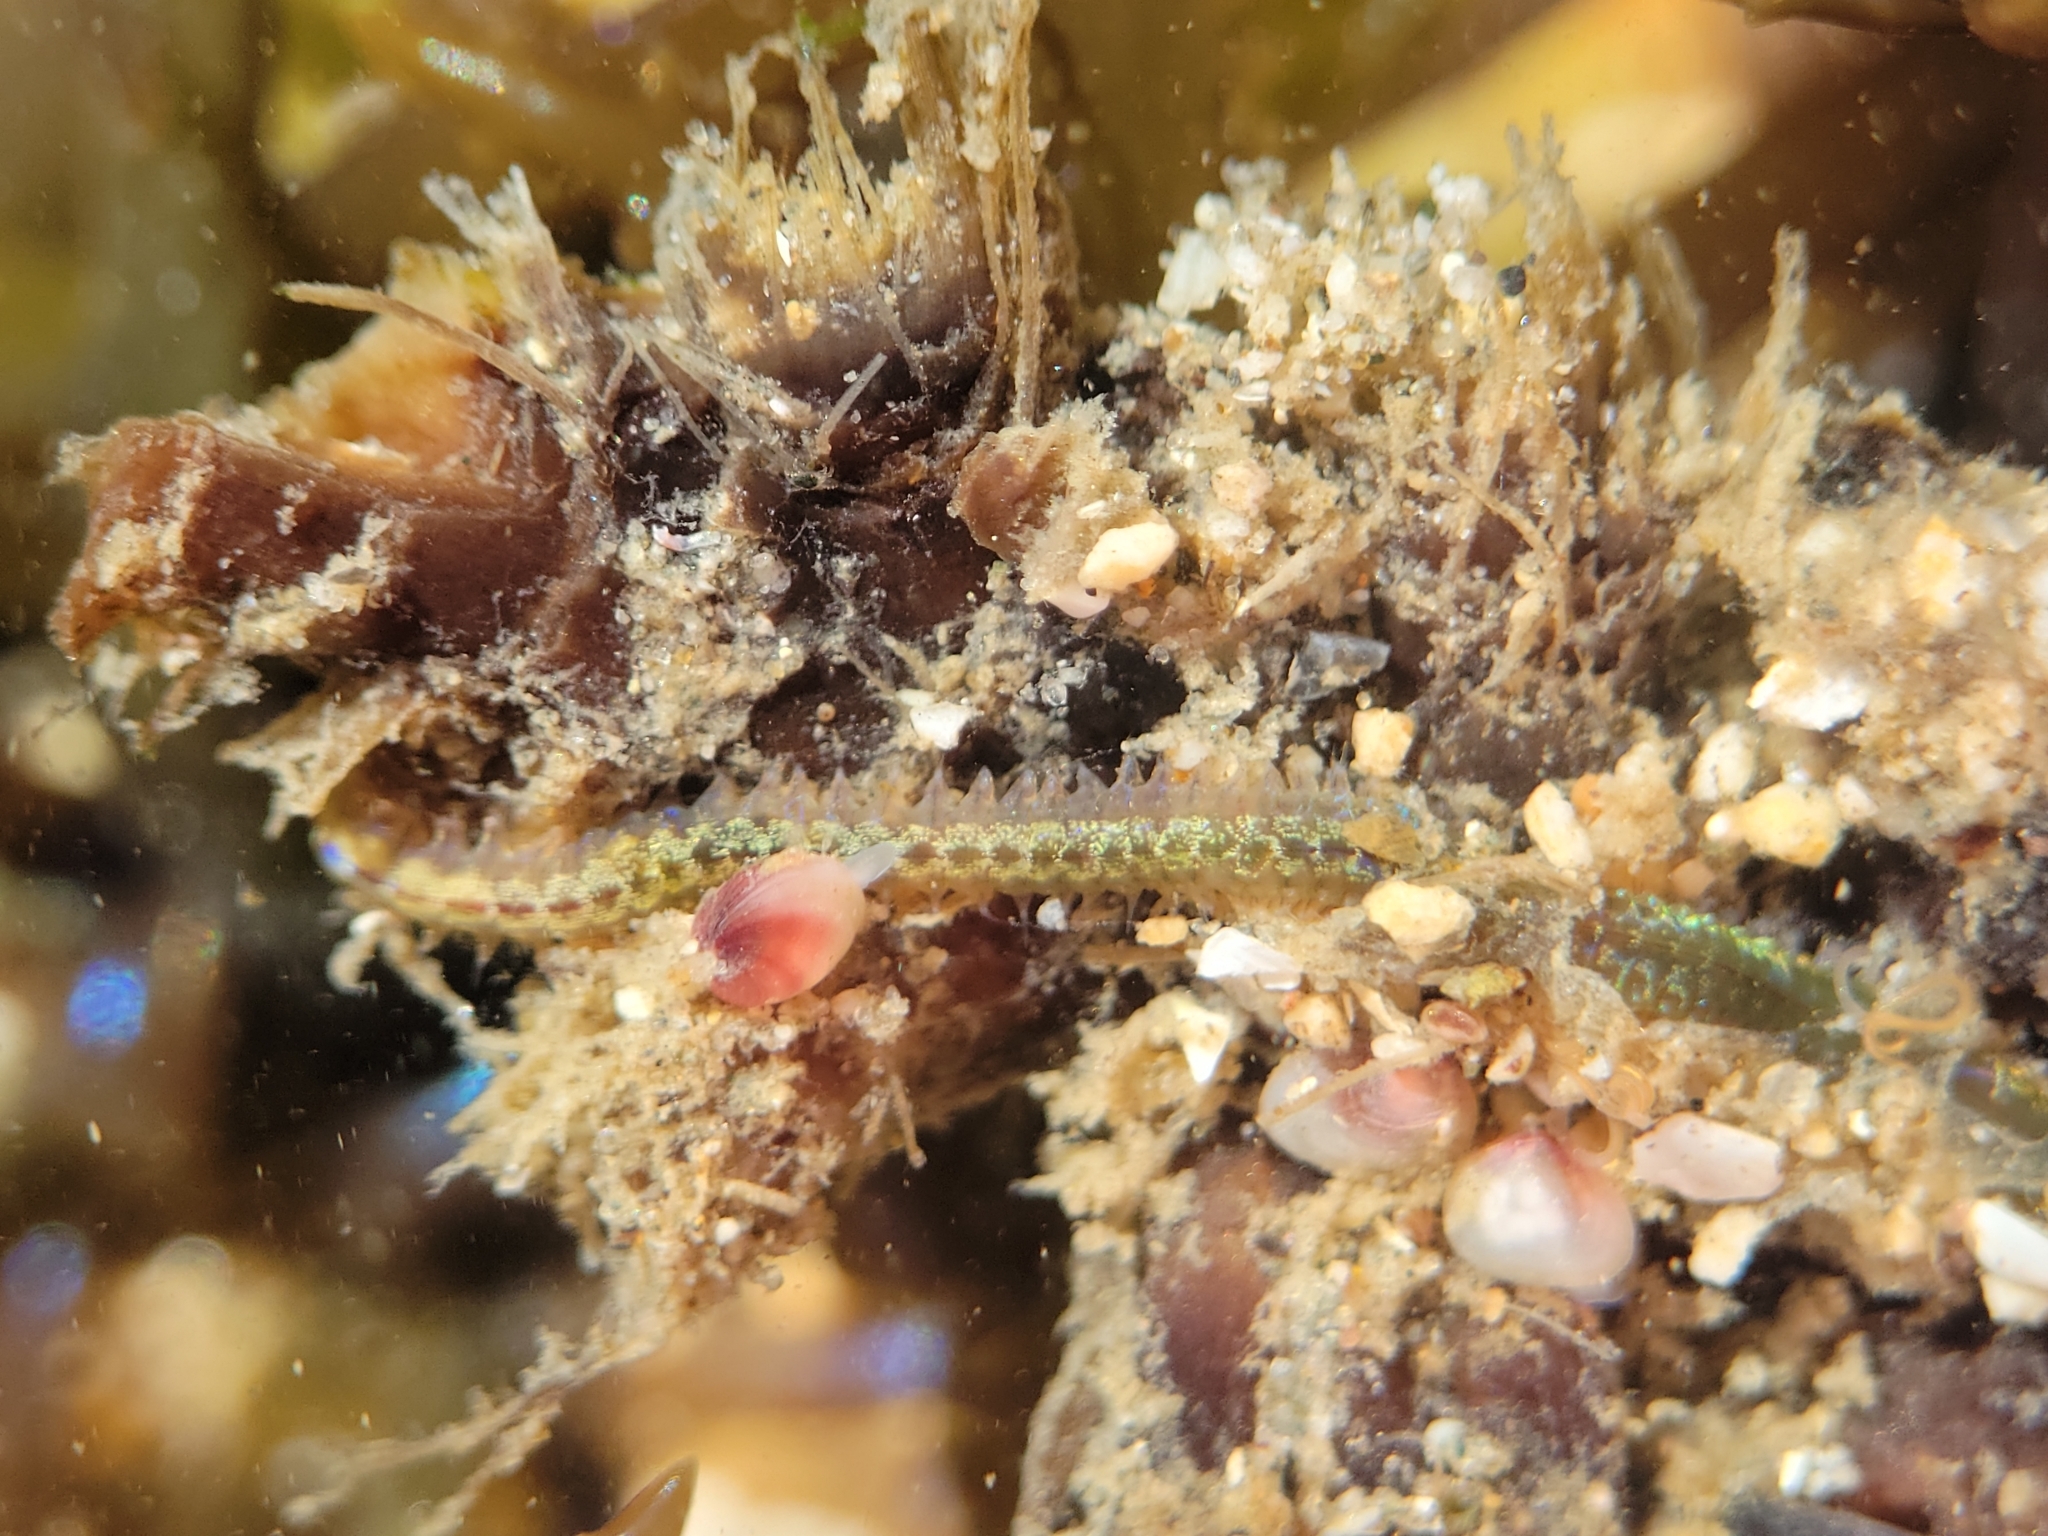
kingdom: Animalia
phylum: Mollusca
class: Bivalvia
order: Galeommatida
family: Lasaeidae
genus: Lasaea
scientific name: Lasaea adansoni
